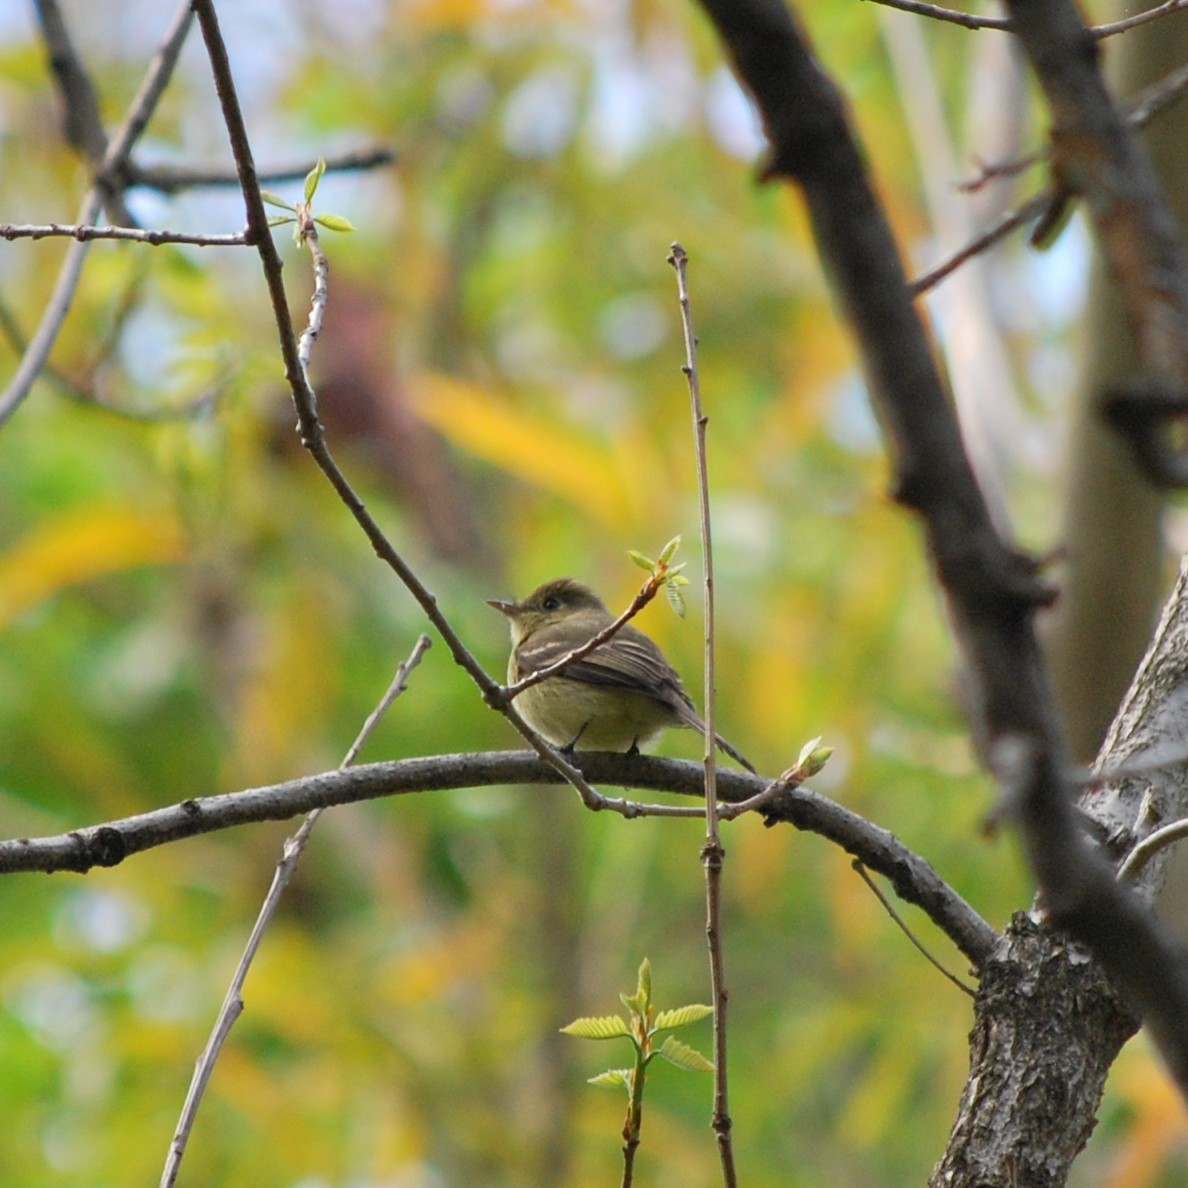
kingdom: Animalia
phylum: Chordata
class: Aves
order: Passeriformes
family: Tyrannidae
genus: Empidonax
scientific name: Empidonax difficilis
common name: Pacific-slope flycatcher
